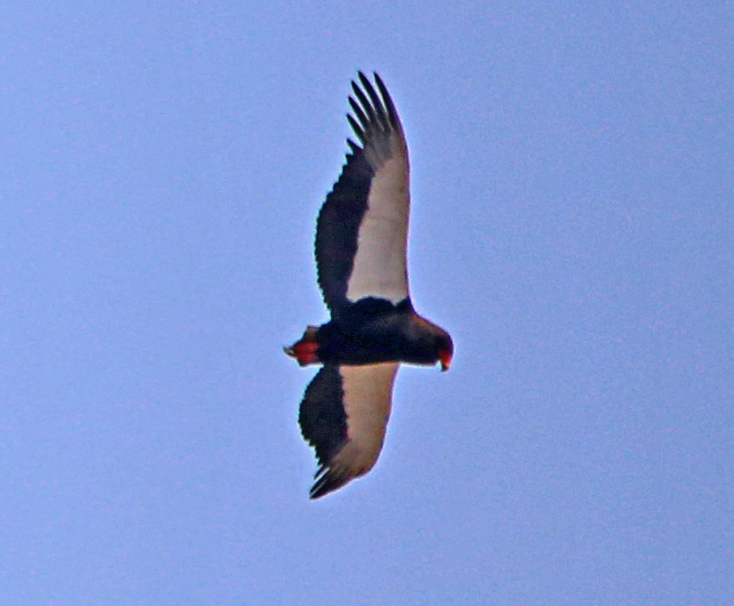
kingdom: Animalia
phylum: Chordata
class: Aves
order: Accipitriformes
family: Accipitridae
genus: Terathopius
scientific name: Terathopius ecaudatus
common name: Bateleur
